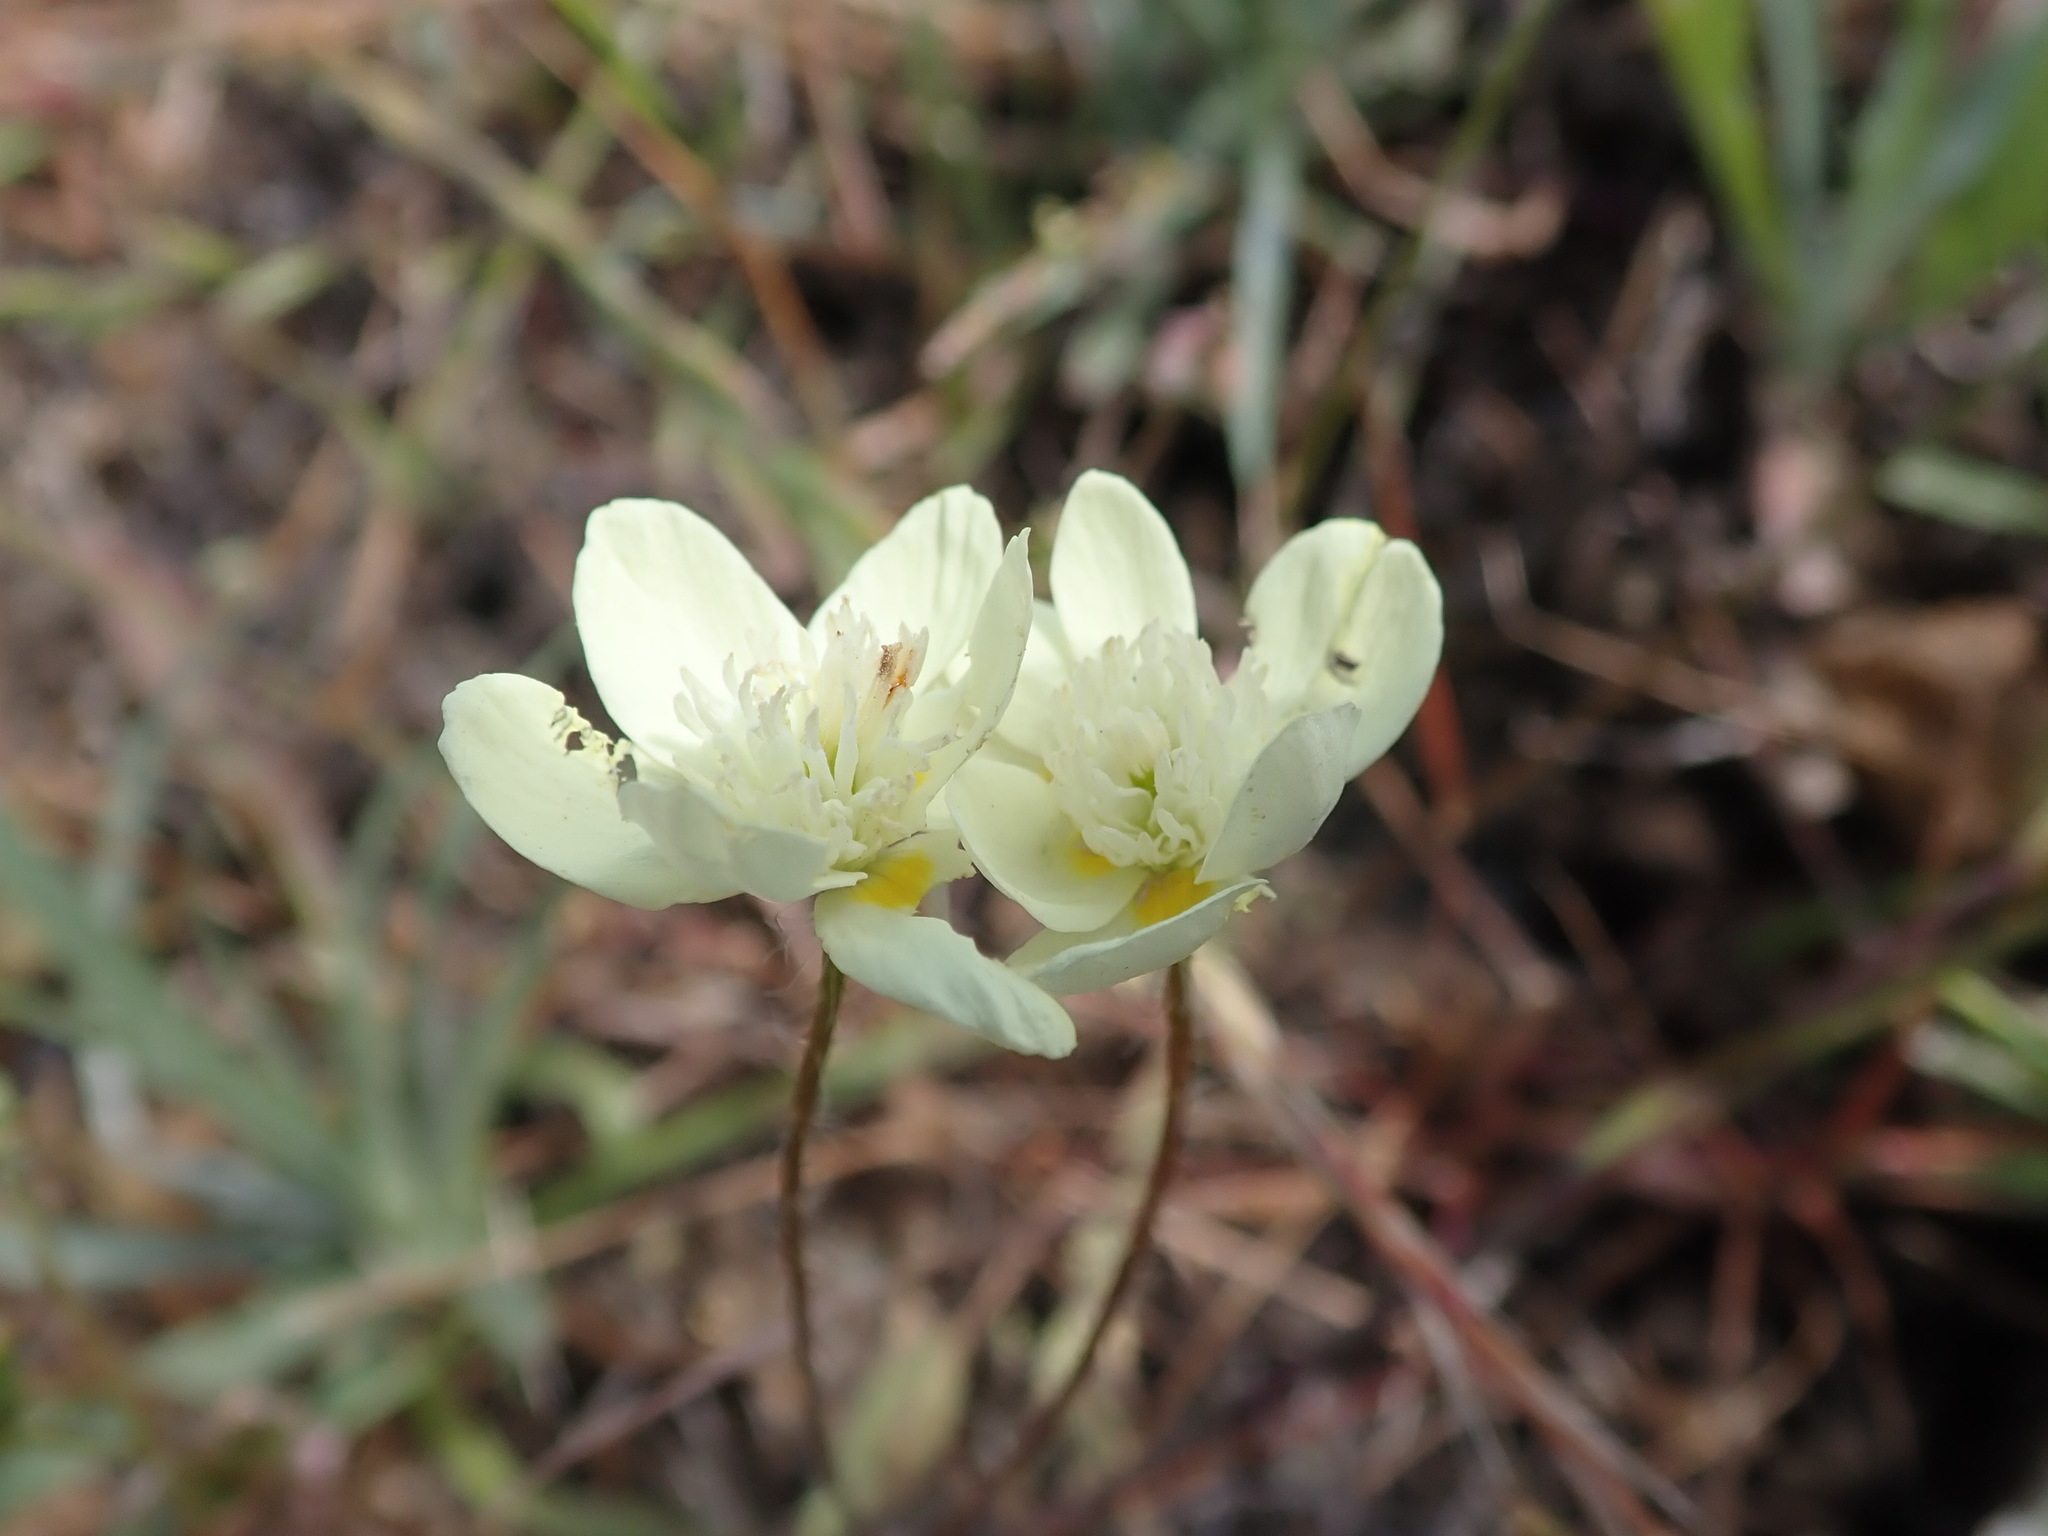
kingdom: Plantae
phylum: Tracheophyta
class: Magnoliopsida
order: Ranunculales
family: Papaveraceae
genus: Platystemon
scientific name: Platystemon californicus
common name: Cream-cups
